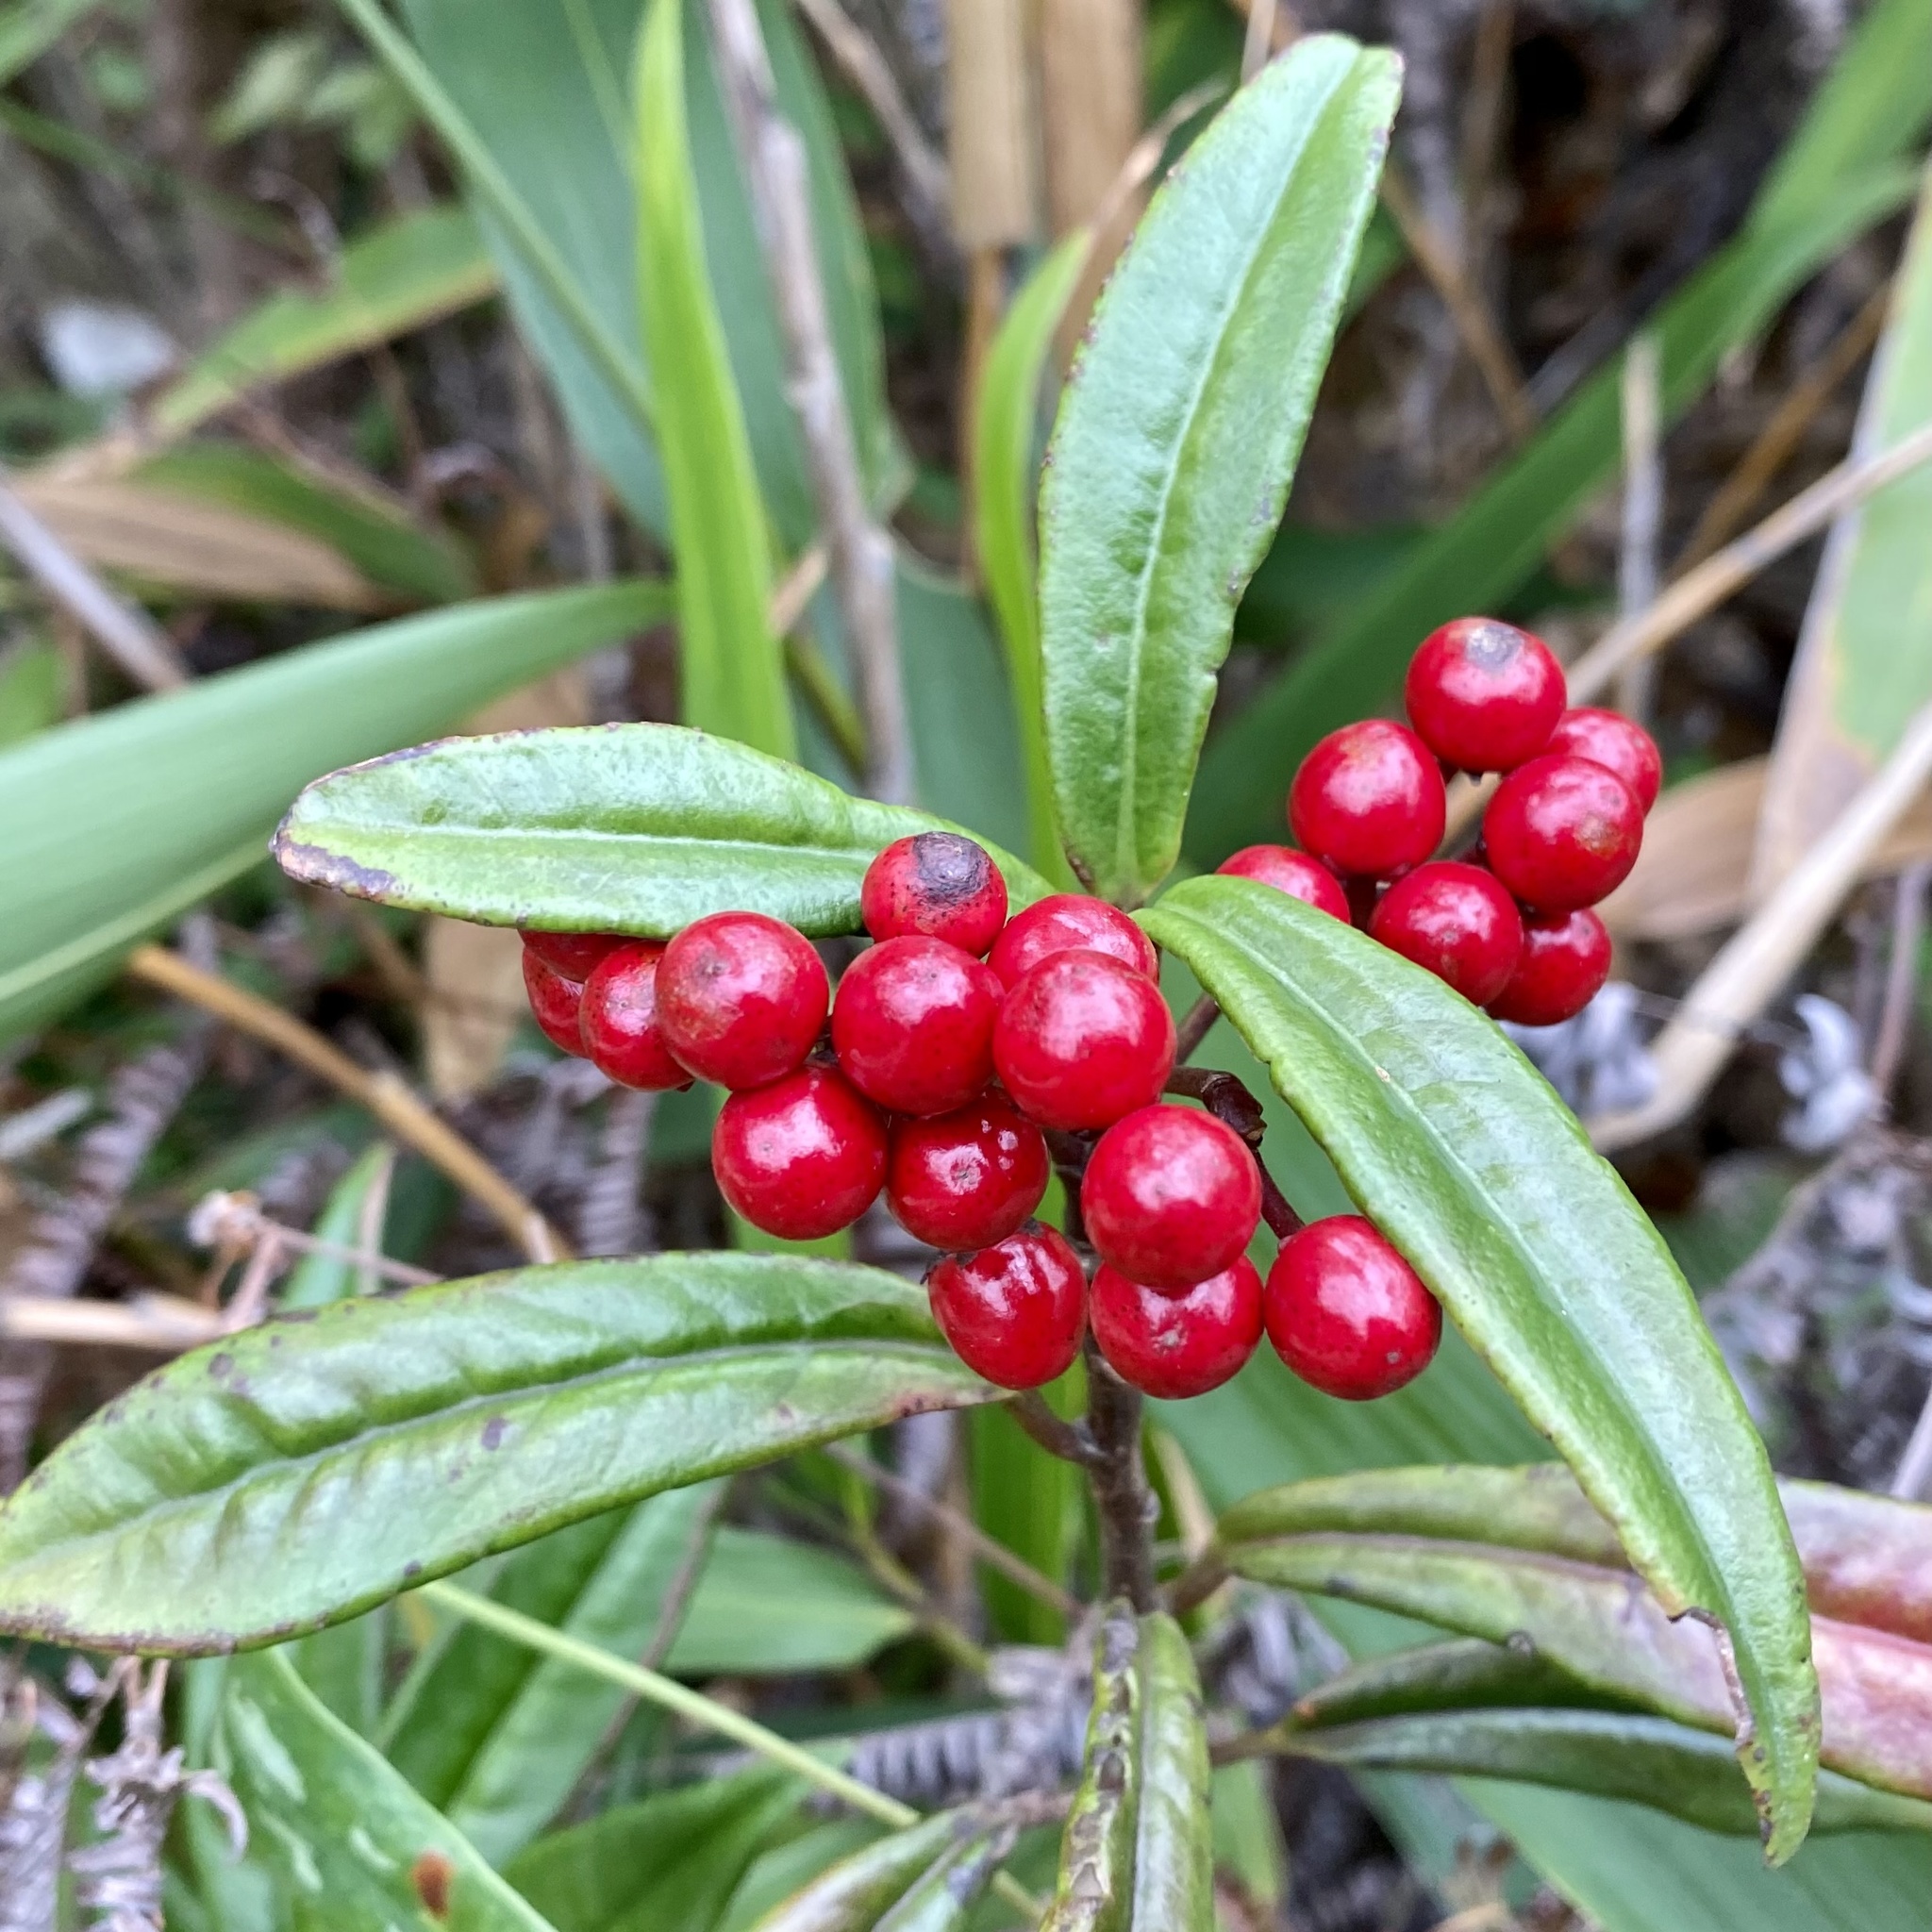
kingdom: Plantae
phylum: Tracheophyta
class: Magnoliopsida
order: Ericales
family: Primulaceae
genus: Ardisia
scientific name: Ardisia lindleyana
